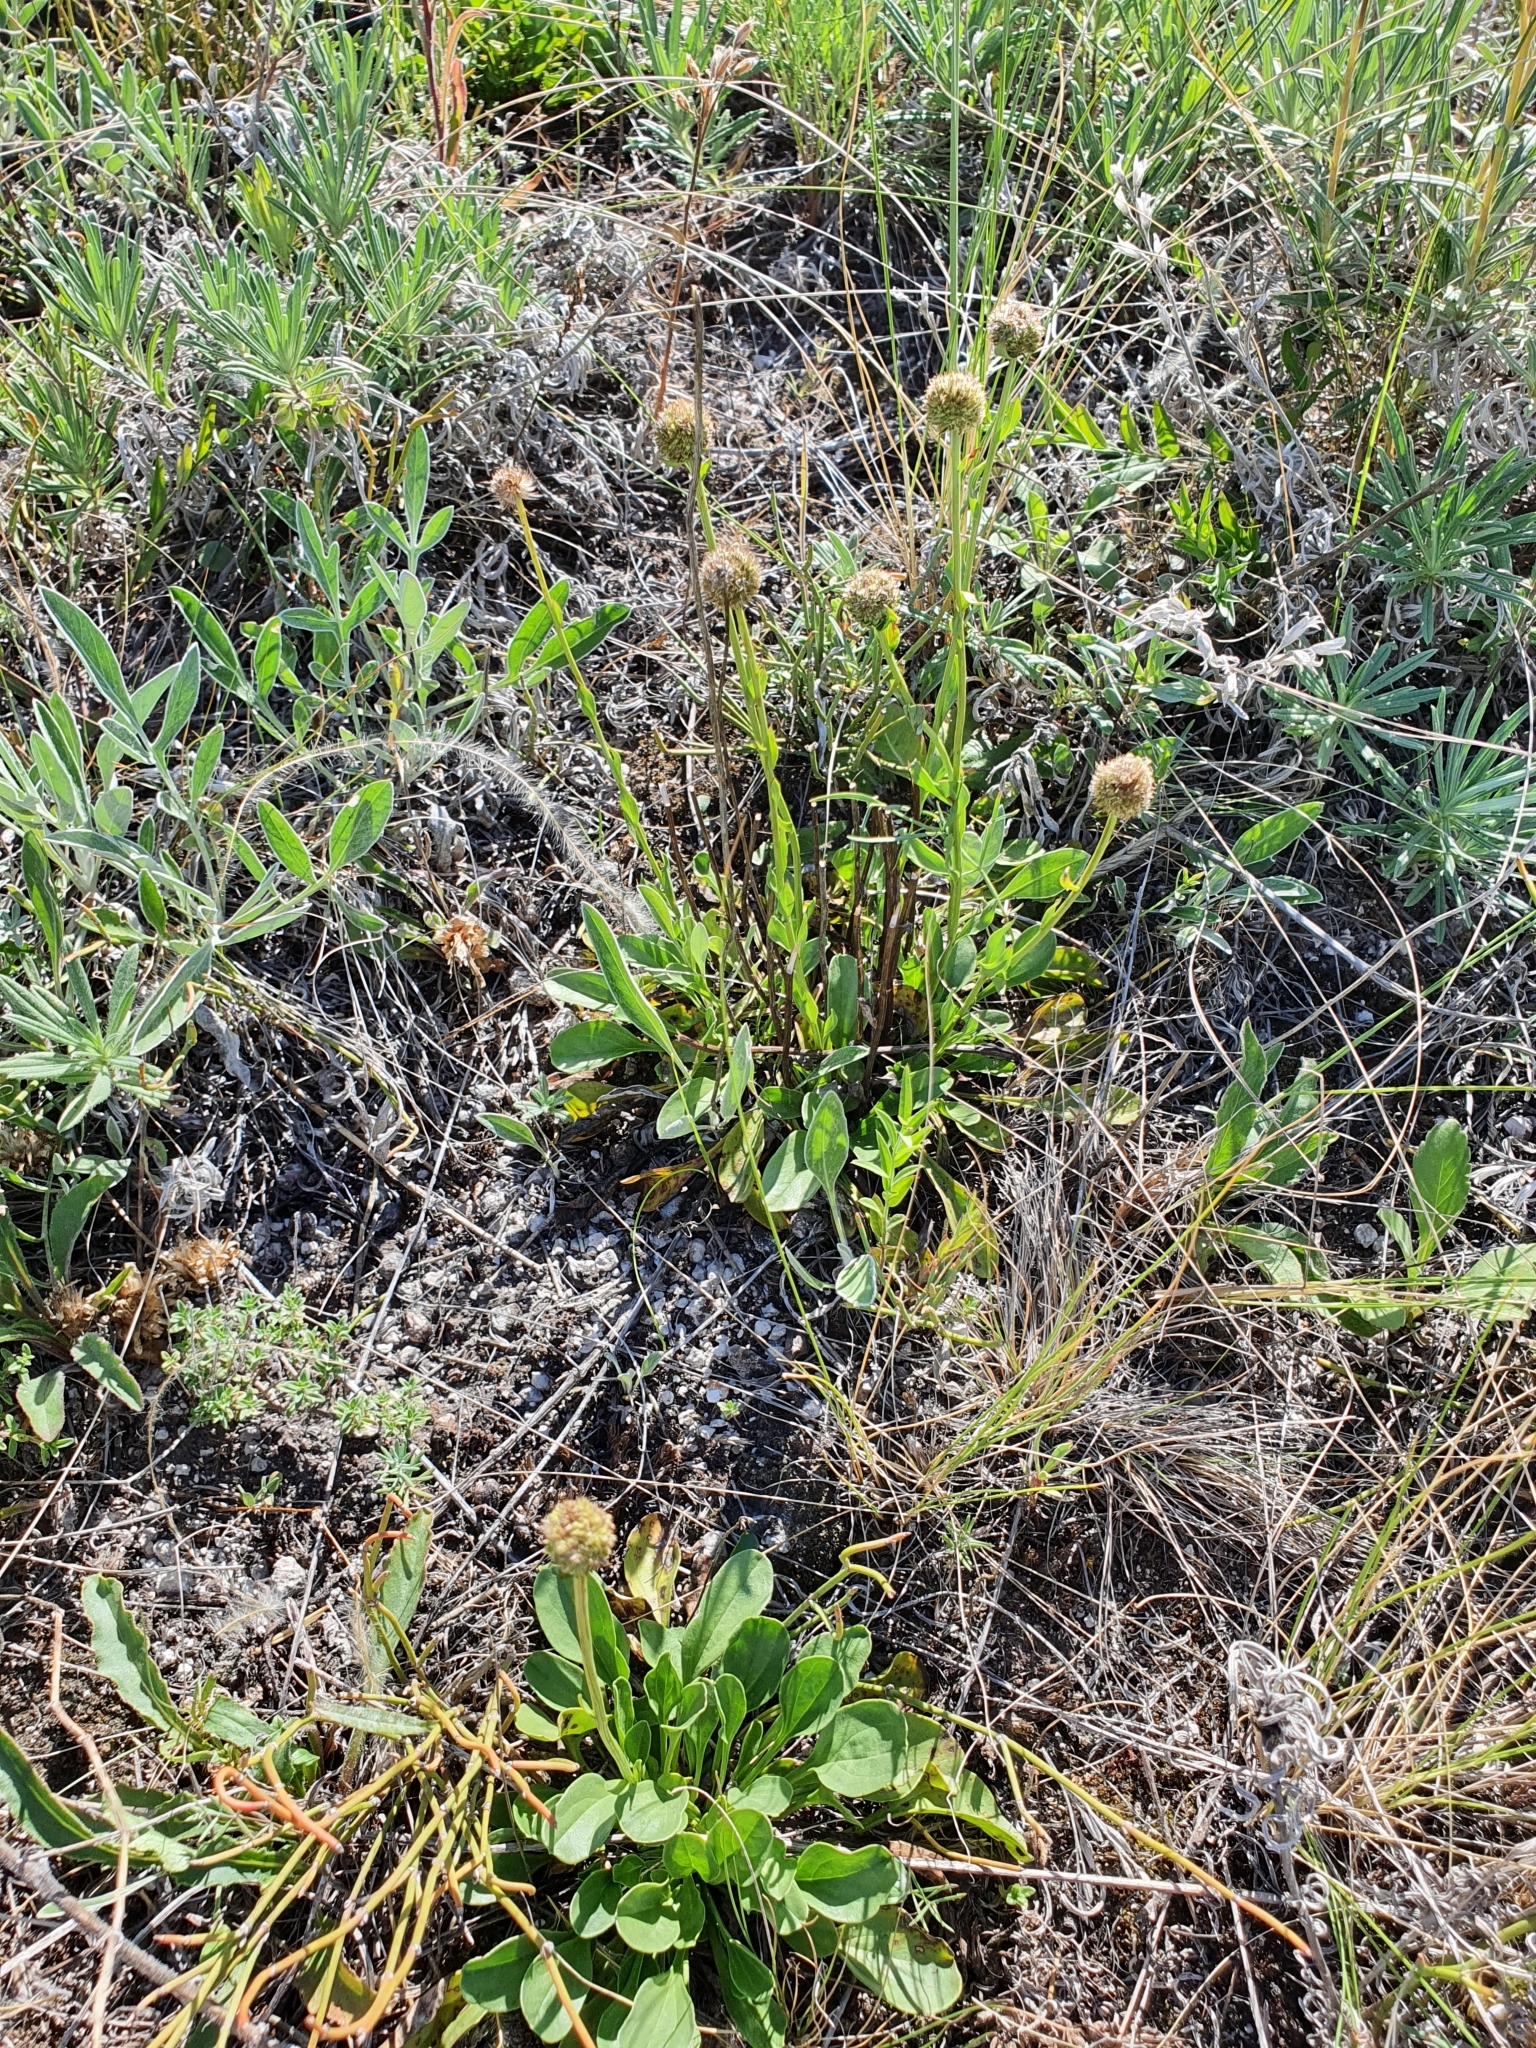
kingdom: Plantae
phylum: Tracheophyta
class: Magnoliopsida
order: Lamiales
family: Plantaginaceae
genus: Globularia
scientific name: Globularia bisnagarica
